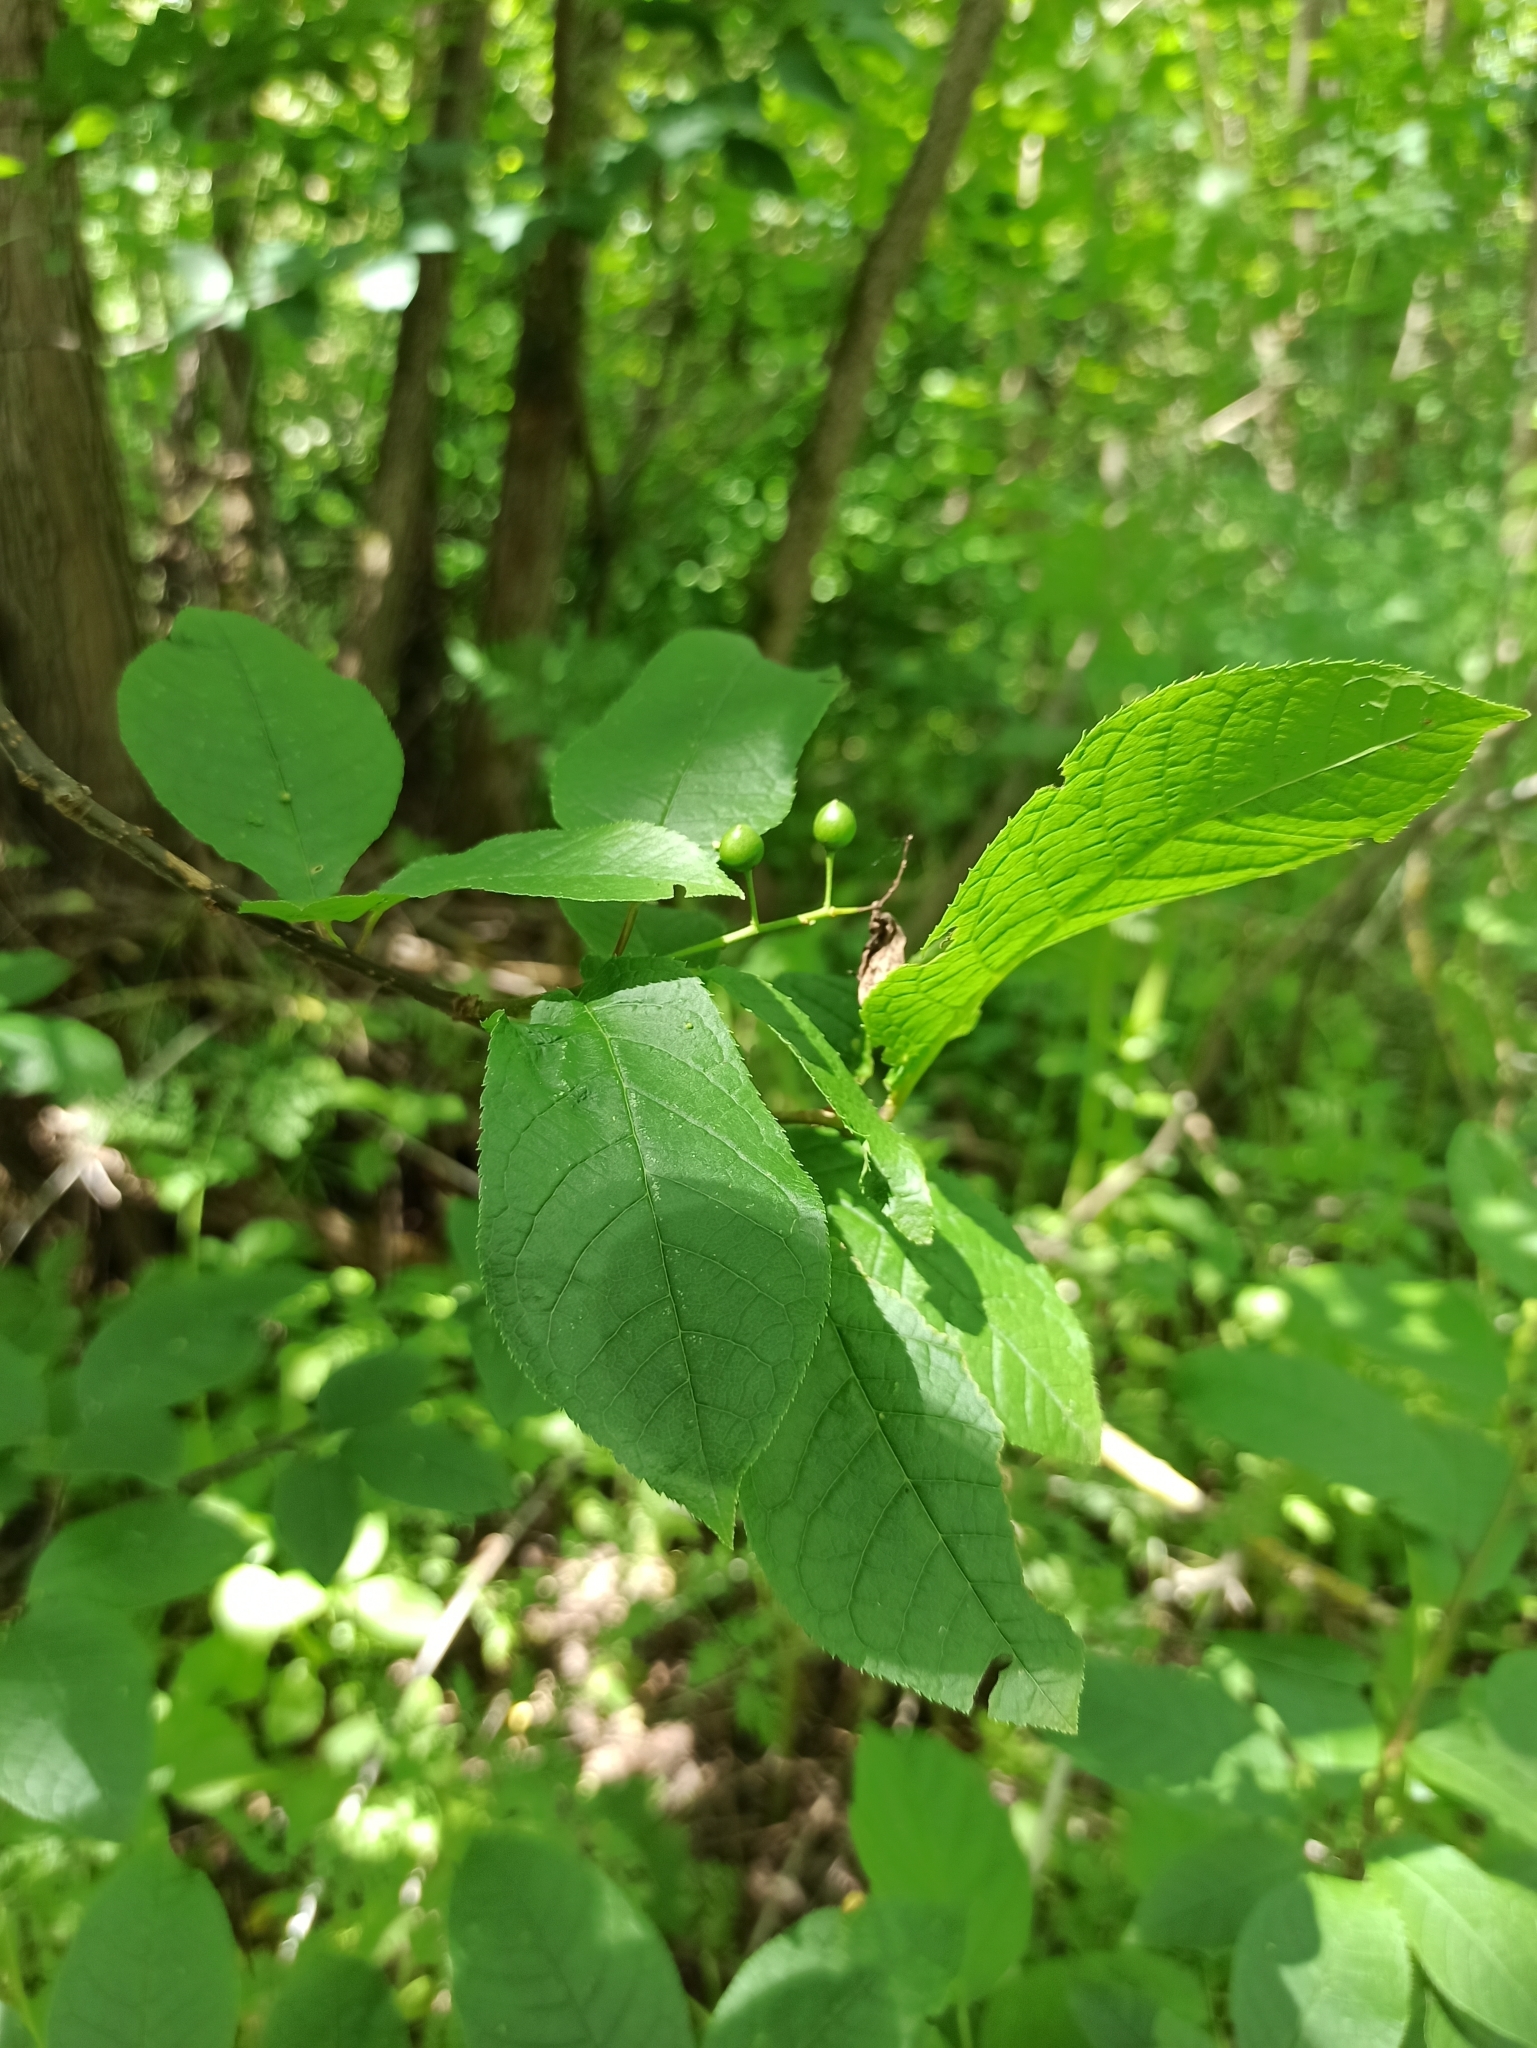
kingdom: Plantae
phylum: Tracheophyta
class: Magnoliopsida
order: Rosales
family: Rosaceae
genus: Prunus
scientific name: Prunus padus
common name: Bird cherry
